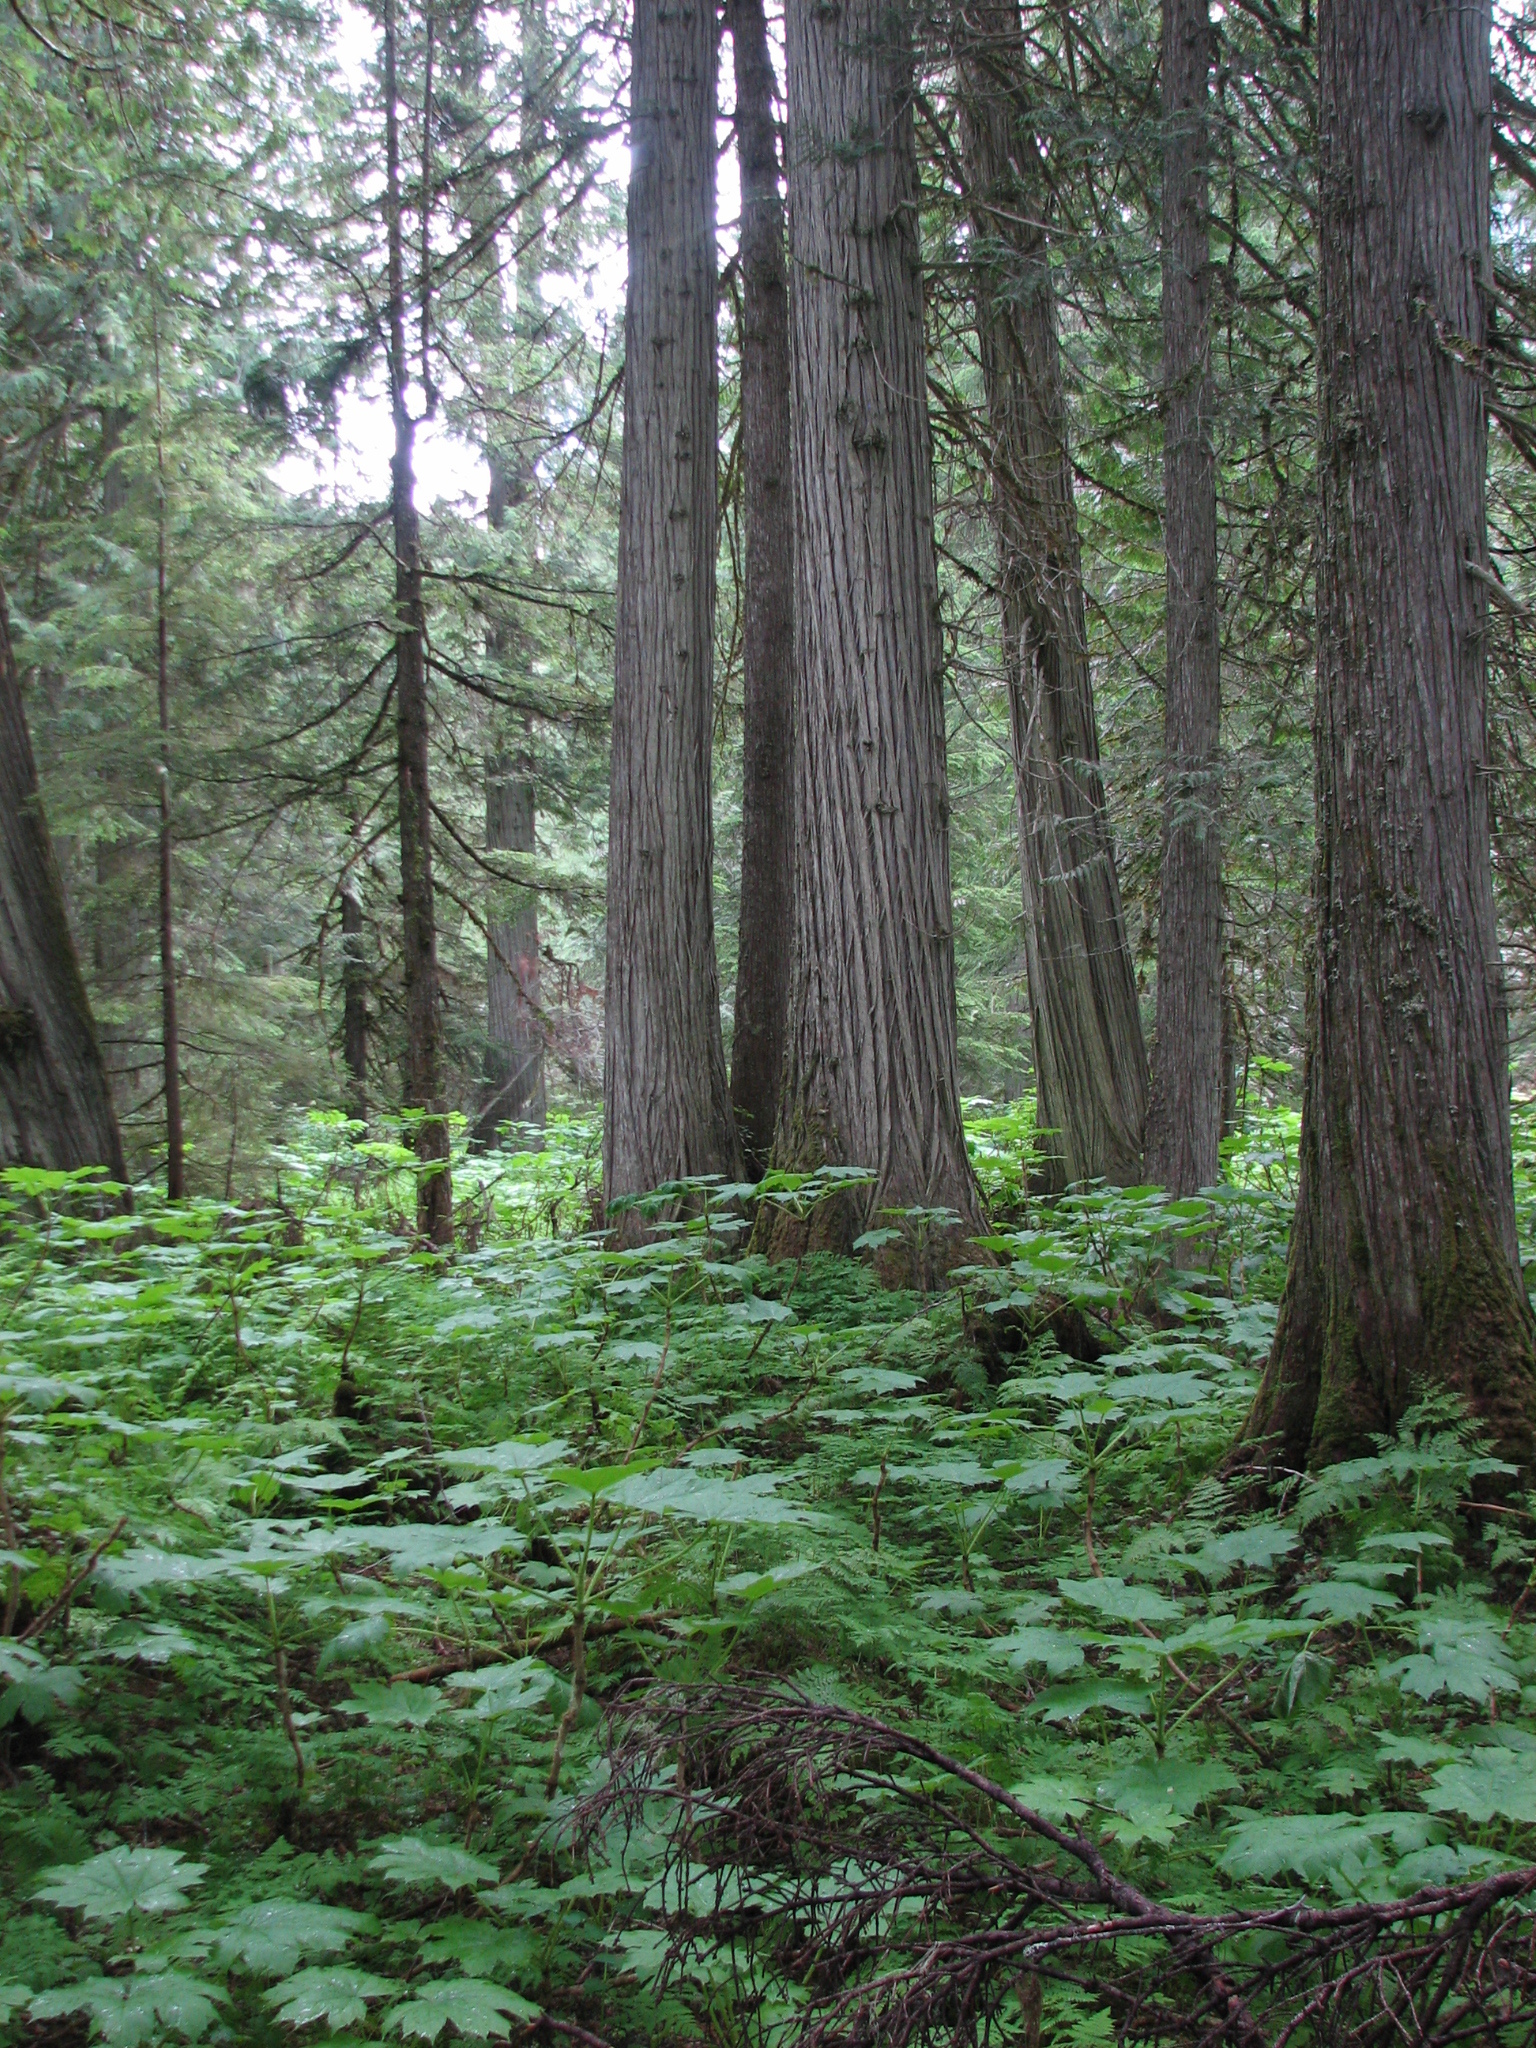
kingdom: Plantae
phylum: Tracheophyta
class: Magnoliopsida
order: Apiales
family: Araliaceae
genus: Oplopanax
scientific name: Oplopanax horridus
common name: Devil's walking-stick
